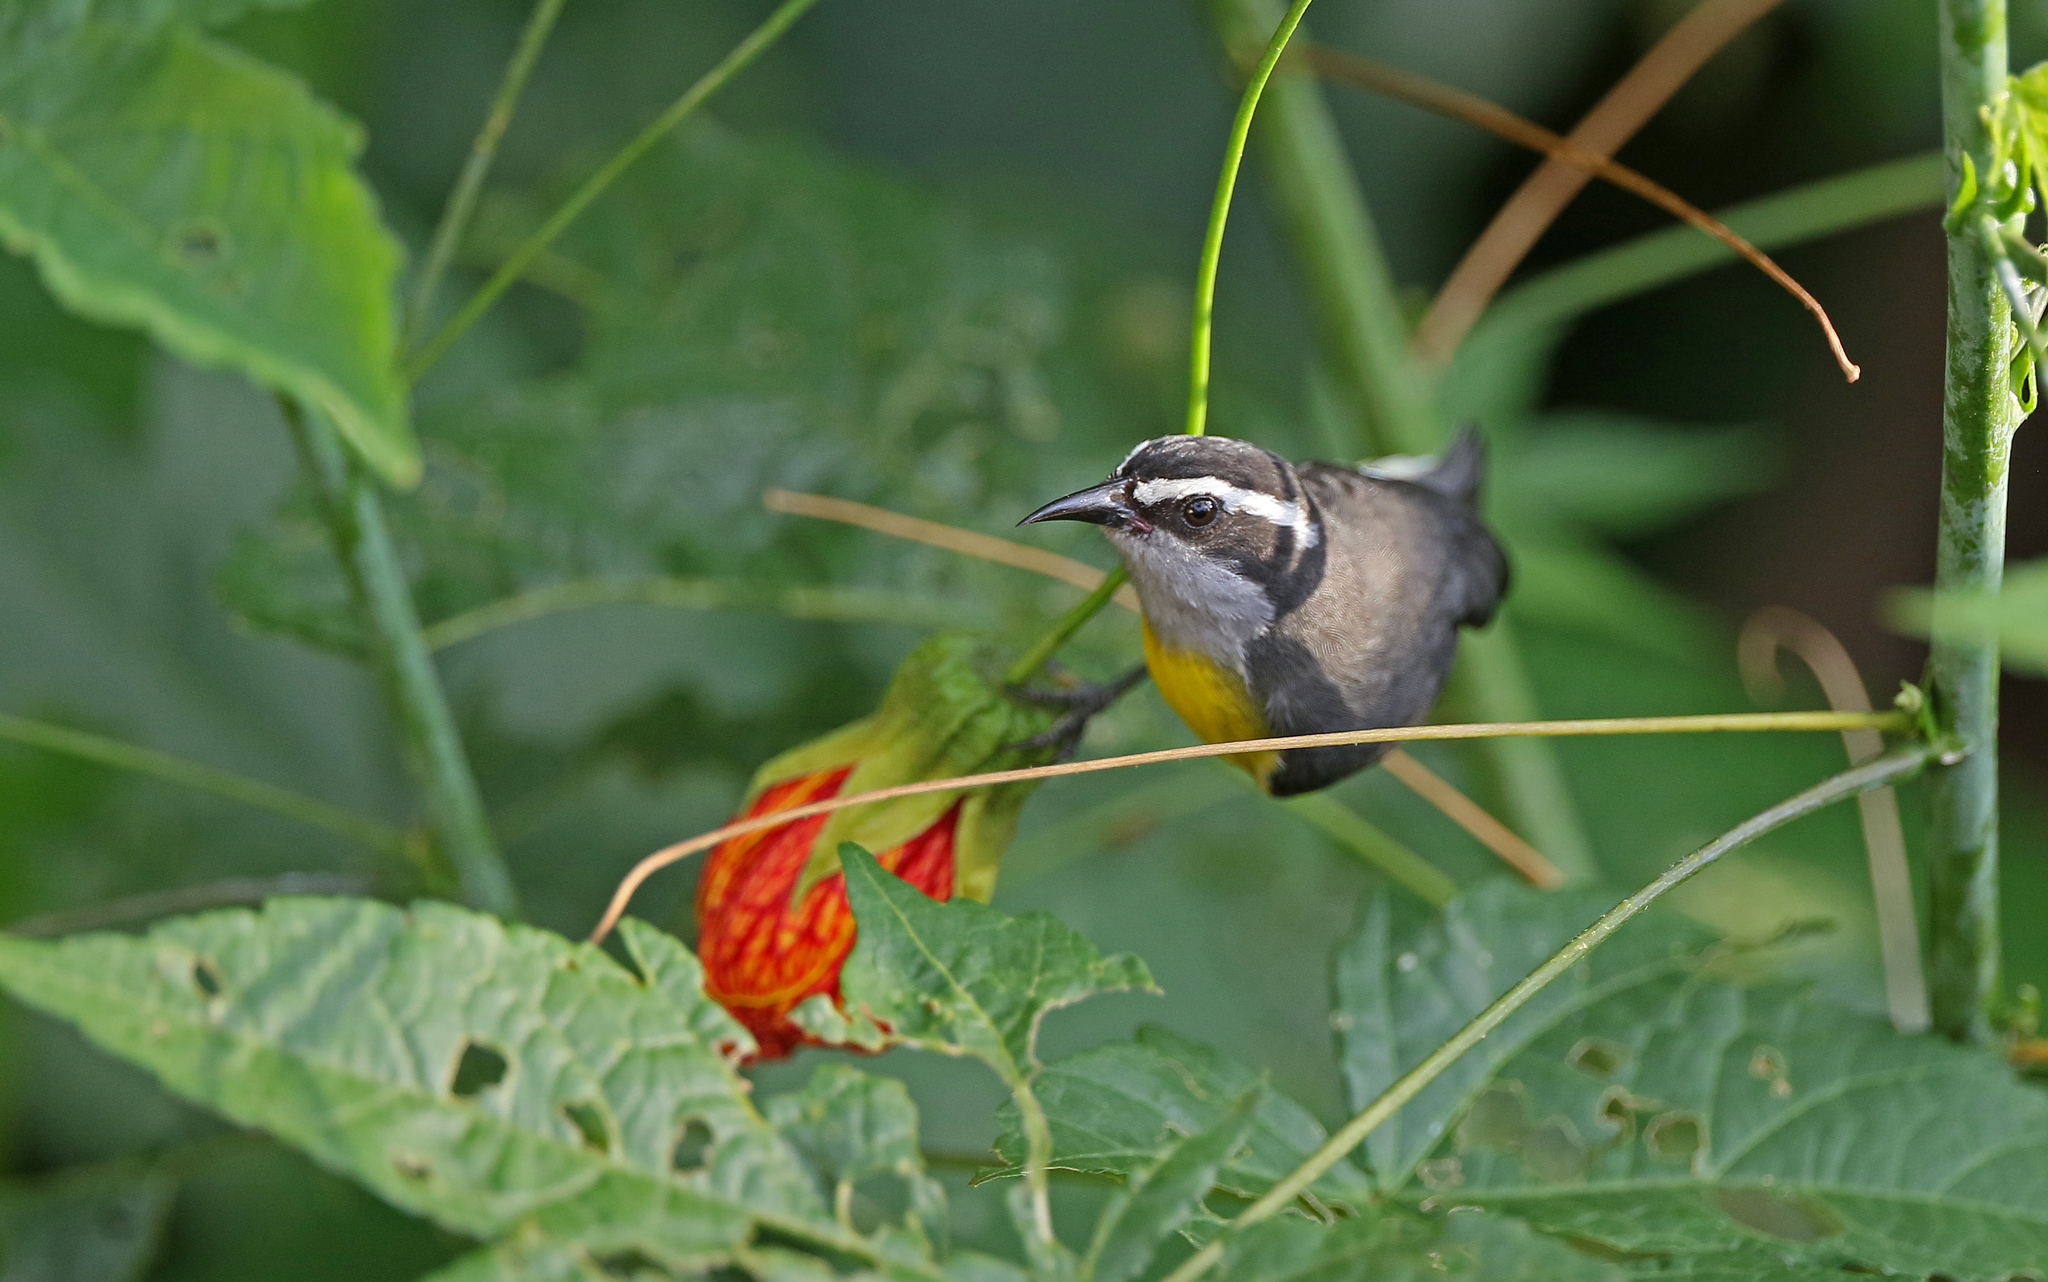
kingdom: Animalia
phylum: Chordata
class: Aves
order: Passeriformes
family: Thraupidae
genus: Coereba
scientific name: Coereba flaveola
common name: Bananaquit
